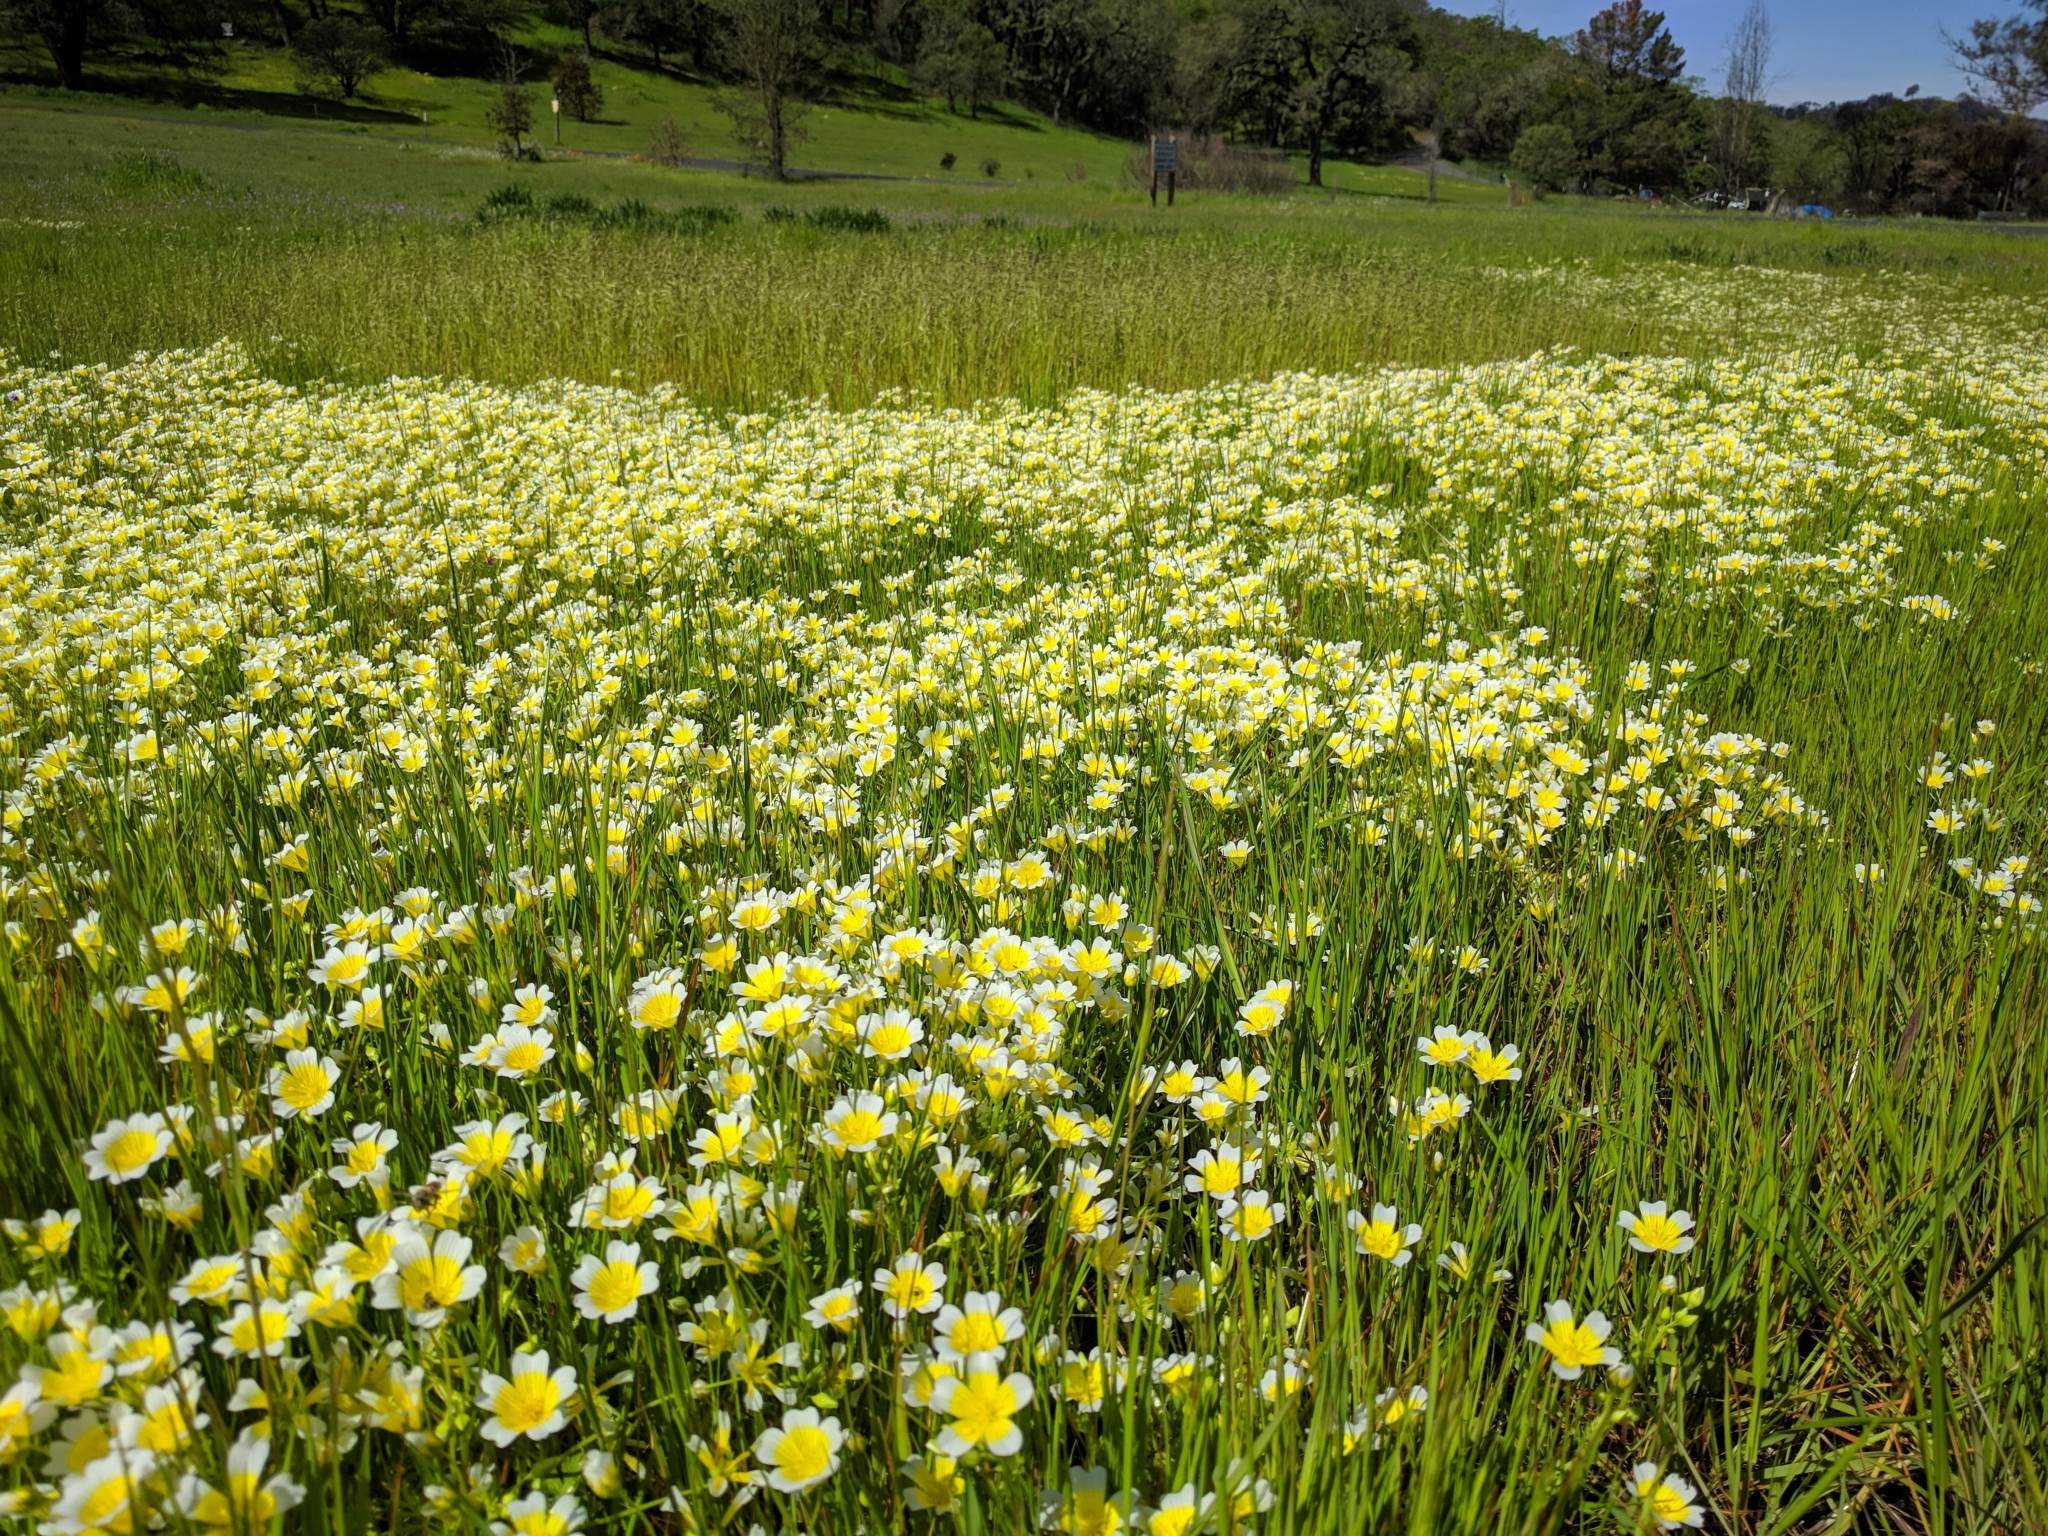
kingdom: Plantae
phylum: Tracheophyta
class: Magnoliopsida
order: Brassicales
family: Limnanthaceae
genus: Limnanthes
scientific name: Limnanthes douglasii
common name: Meadow-foam
